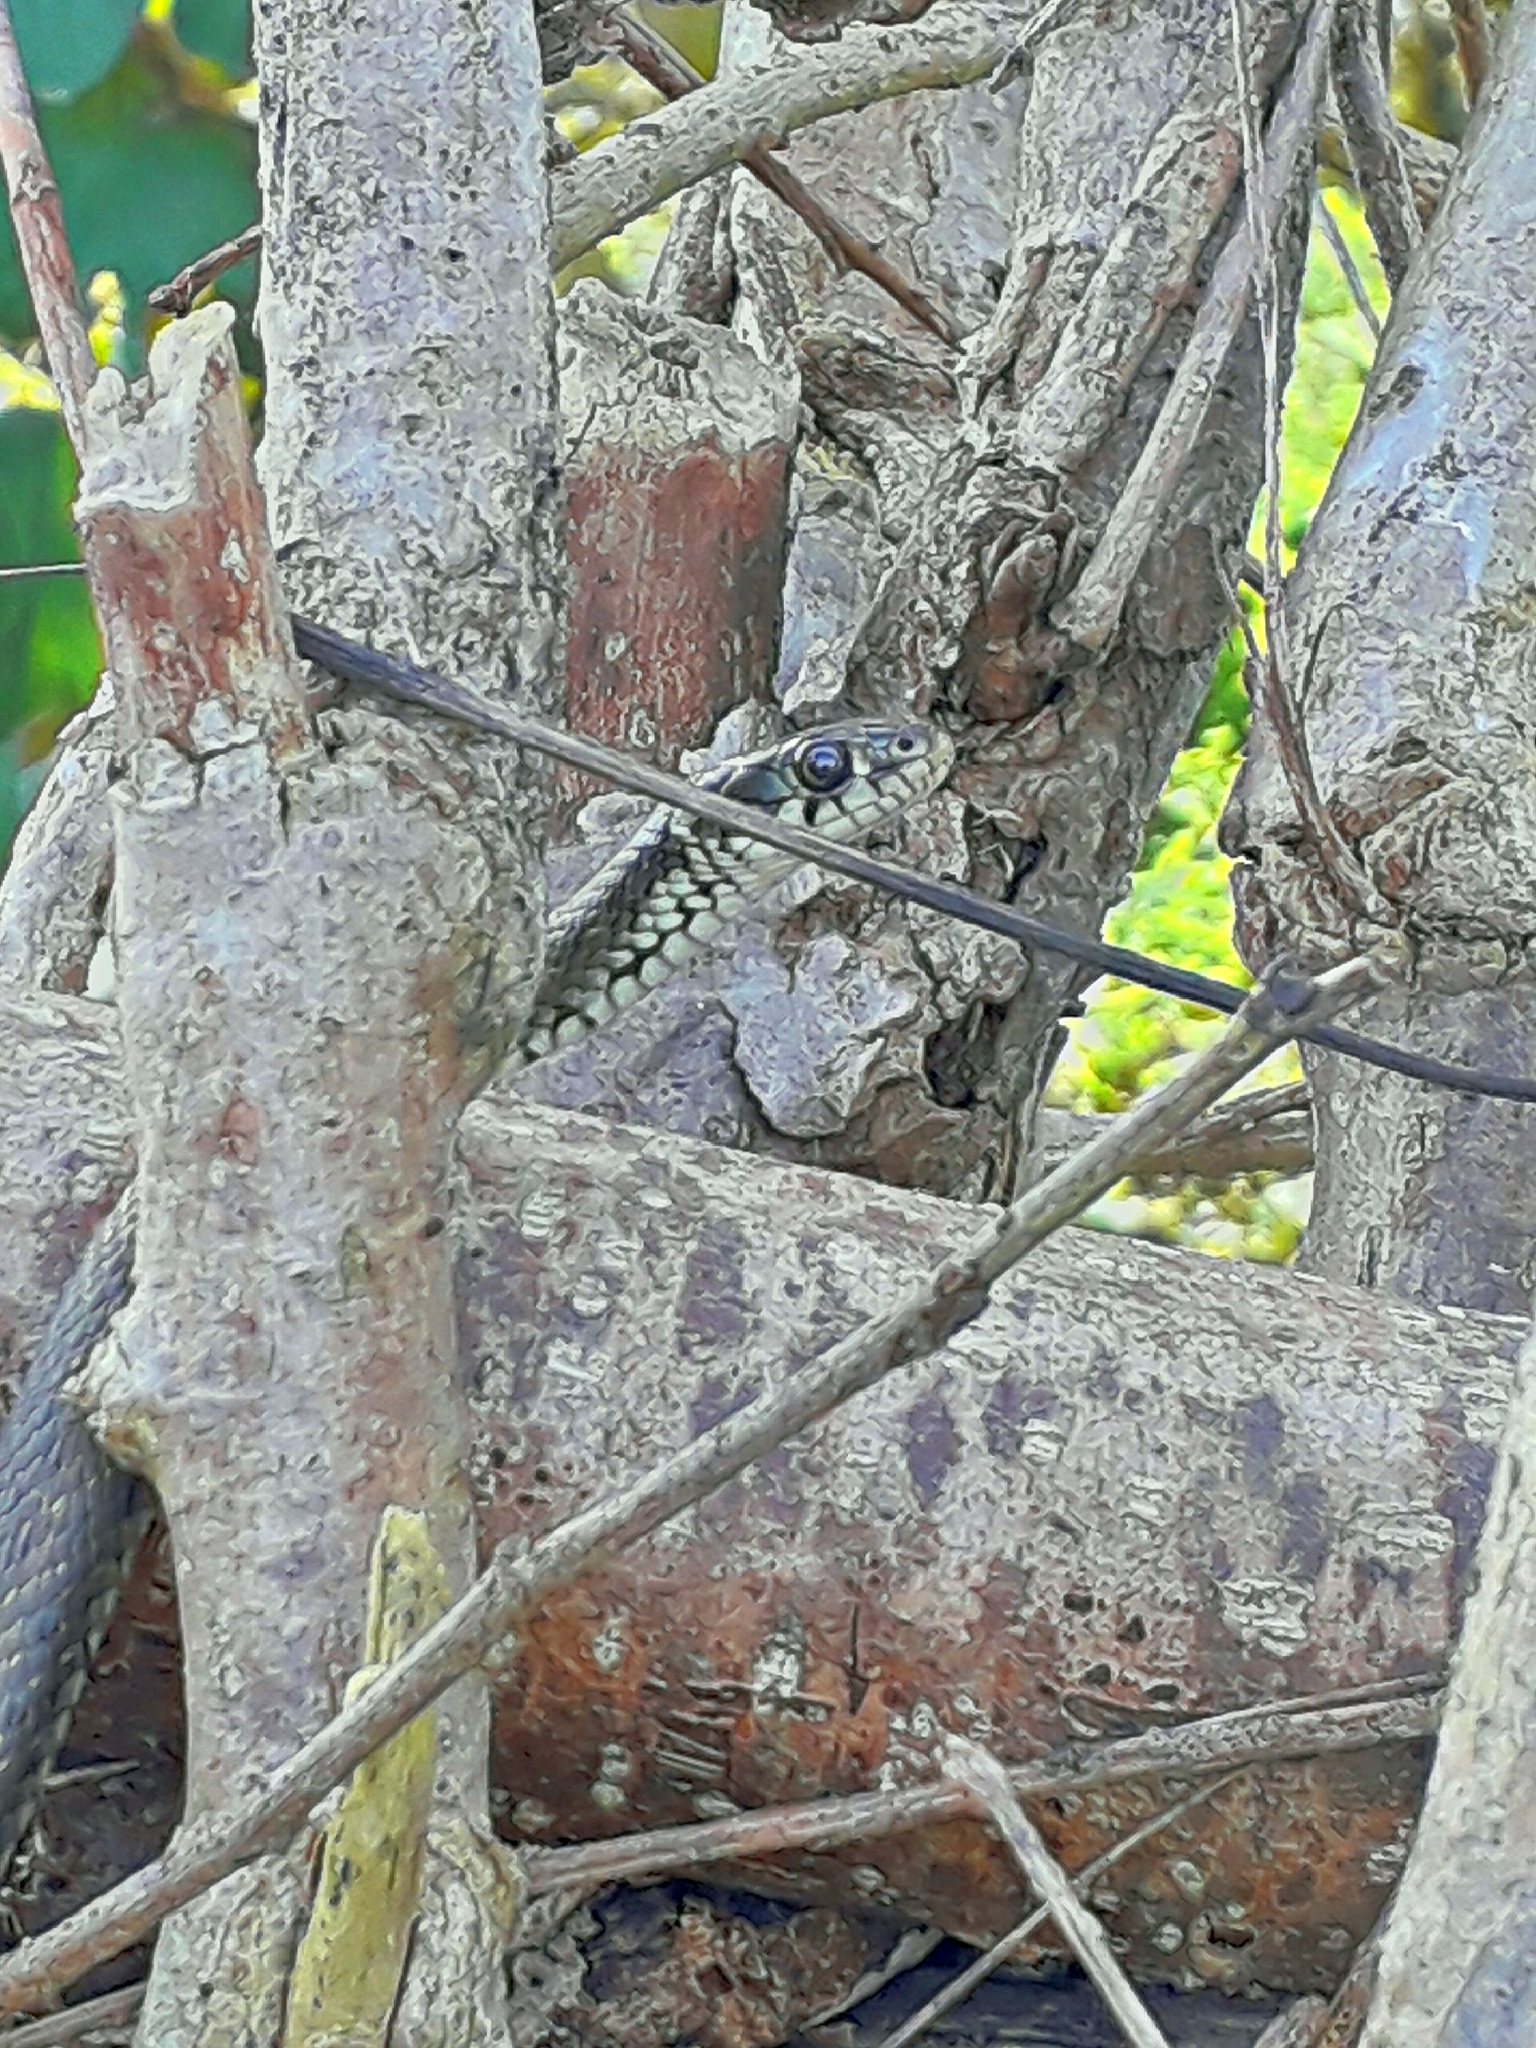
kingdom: Animalia
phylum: Chordata
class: Squamata
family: Colubridae
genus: Natrix
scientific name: Natrix natrix
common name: Grass snake
